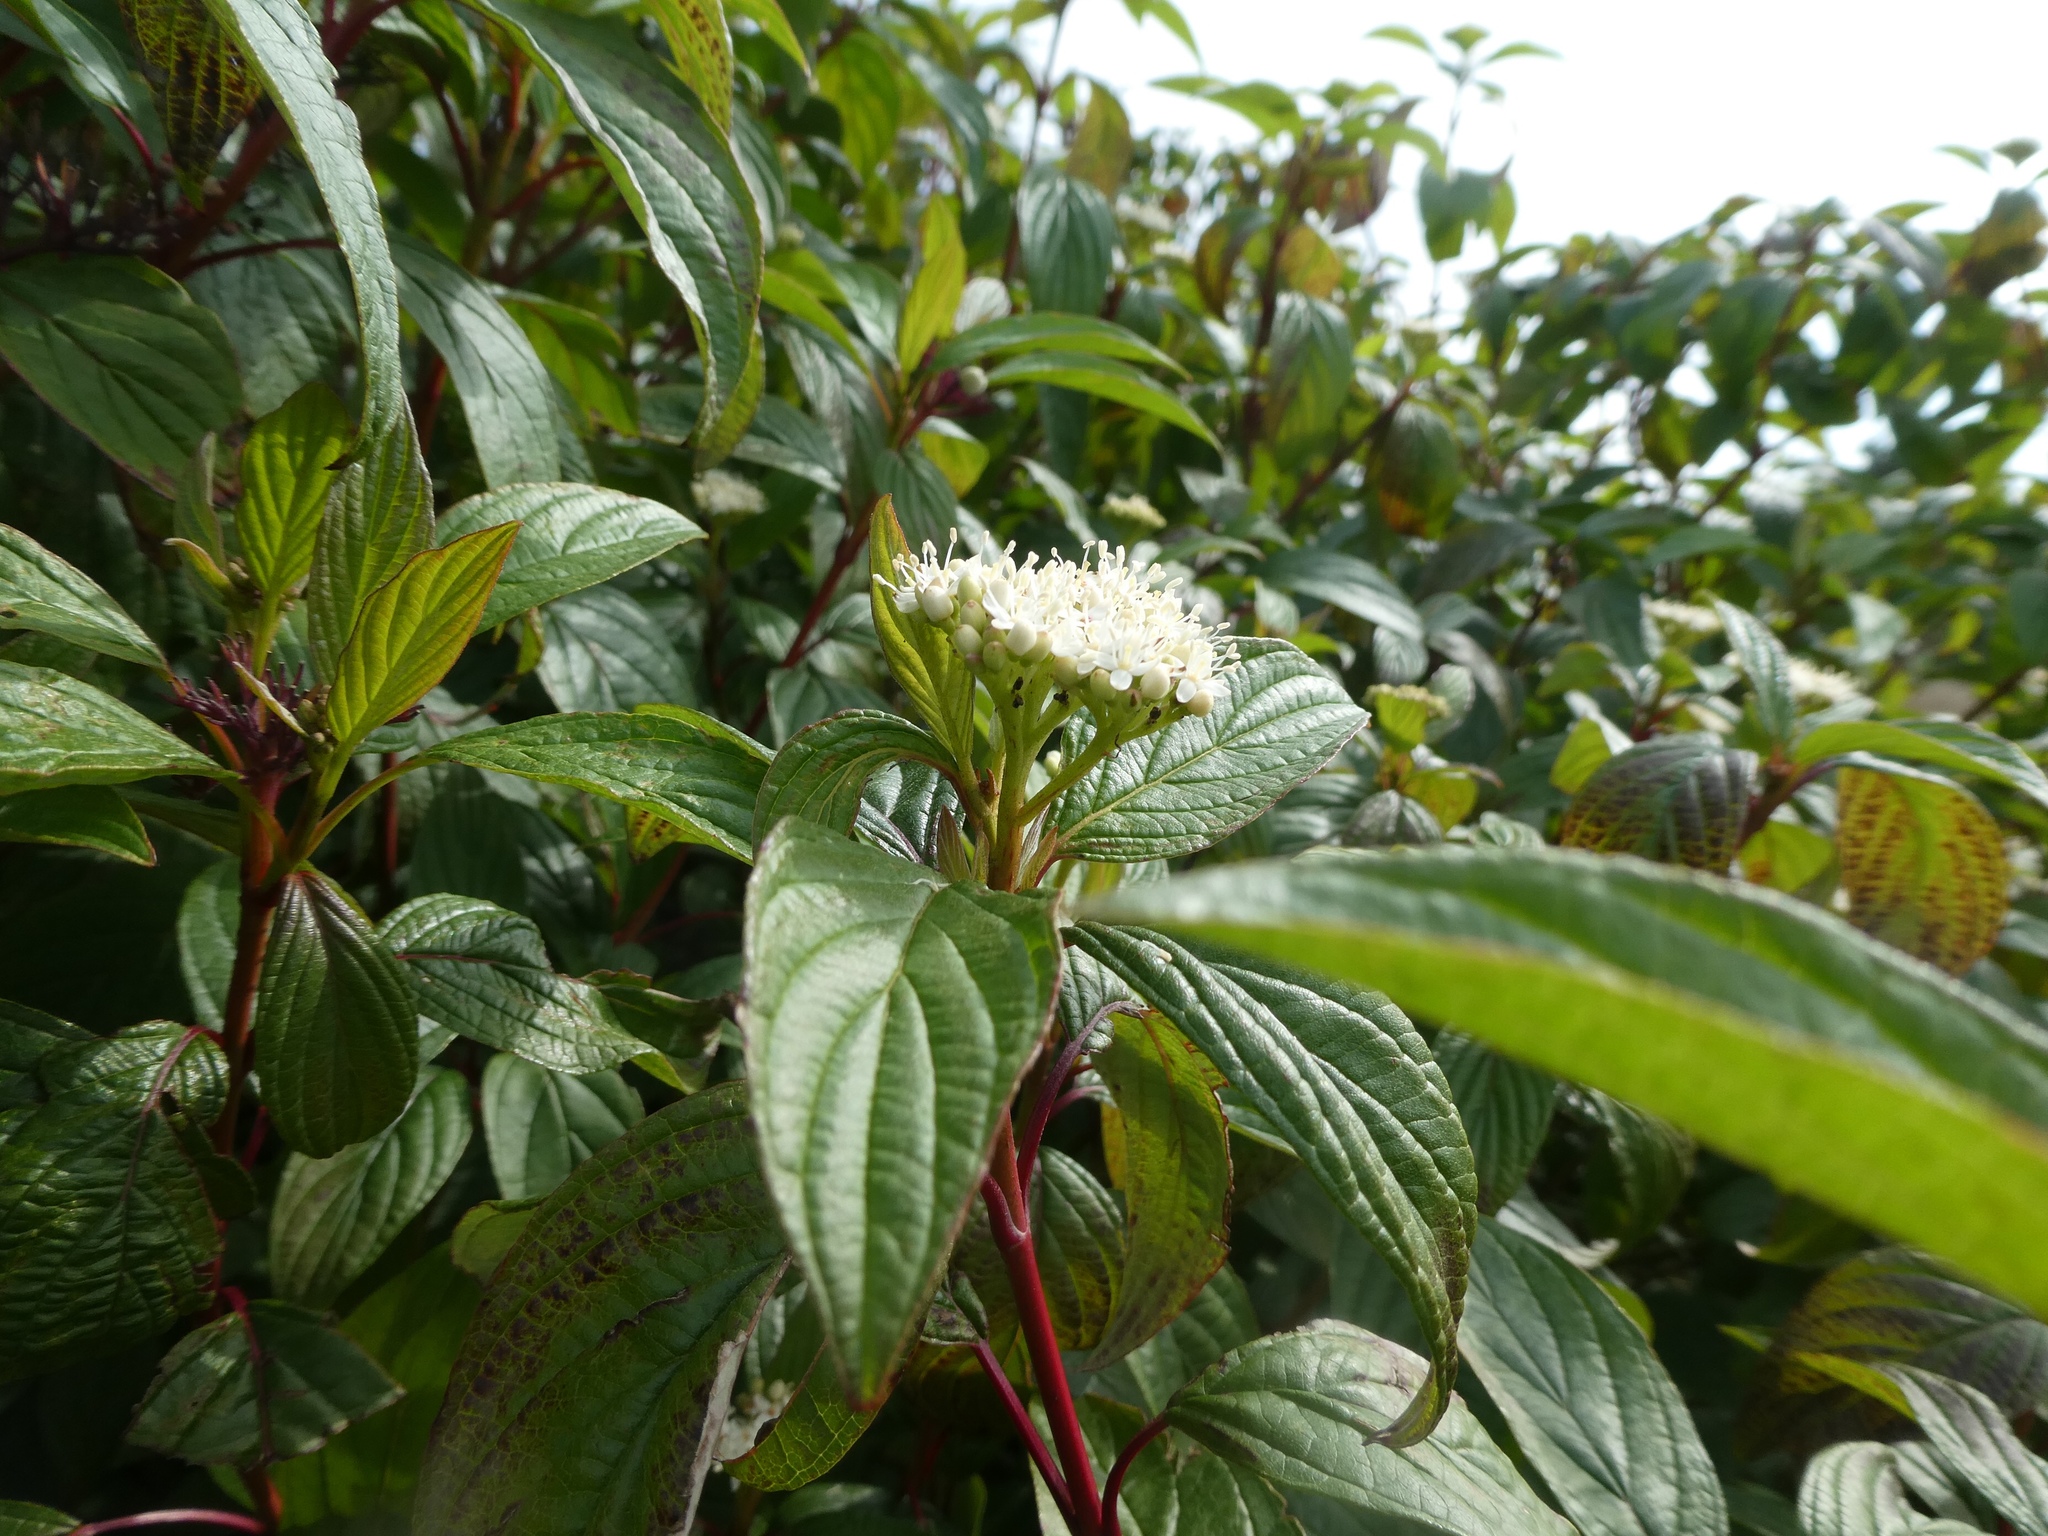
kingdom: Plantae
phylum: Tracheophyta
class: Magnoliopsida
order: Cornales
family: Cornaceae
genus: Cornus
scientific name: Cornus sanguinea
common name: Dogwood
